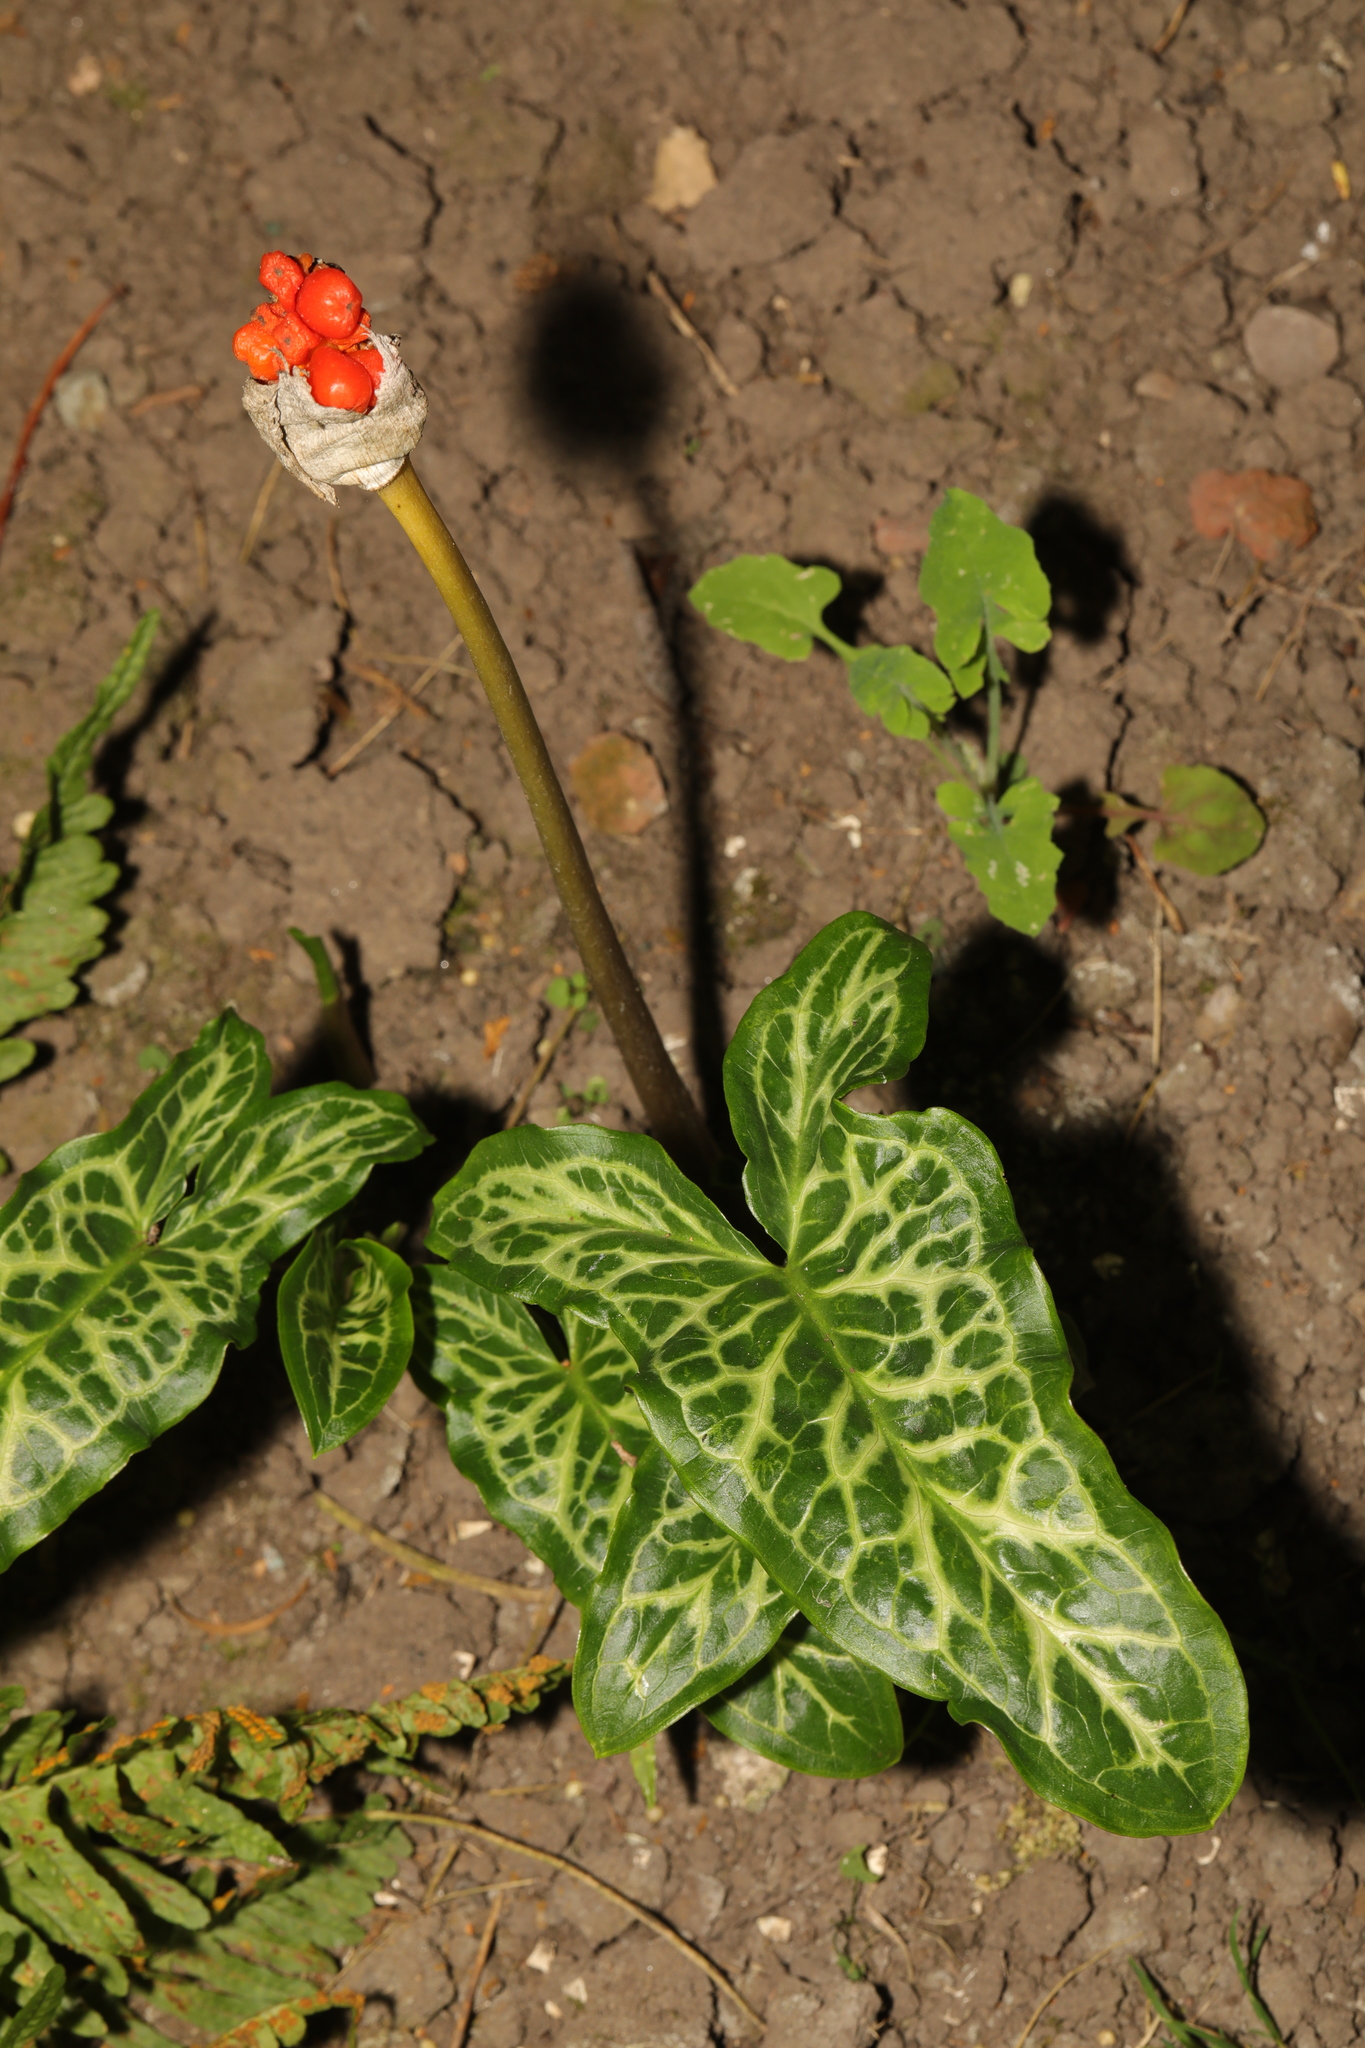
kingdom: Plantae
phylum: Tracheophyta
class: Liliopsida
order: Alismatales
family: Araceae
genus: Arum
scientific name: Arum italicum
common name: Italian lords-and-ladies
